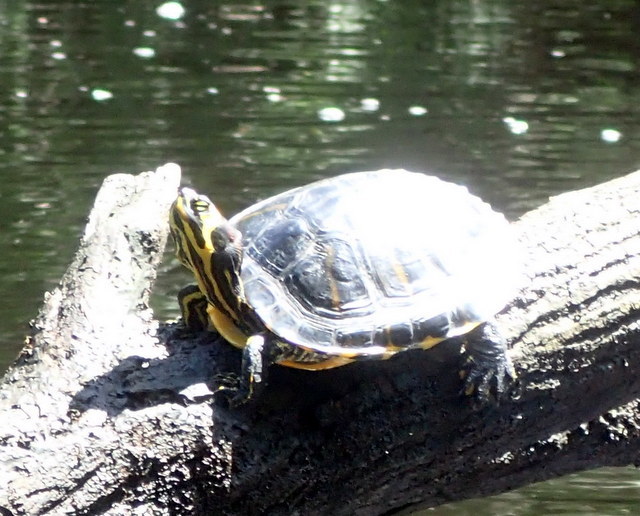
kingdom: Animalia
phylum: Chordata
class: Testudines
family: Emydidae
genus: Trachemys
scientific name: Trachemys scripta
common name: Slider
